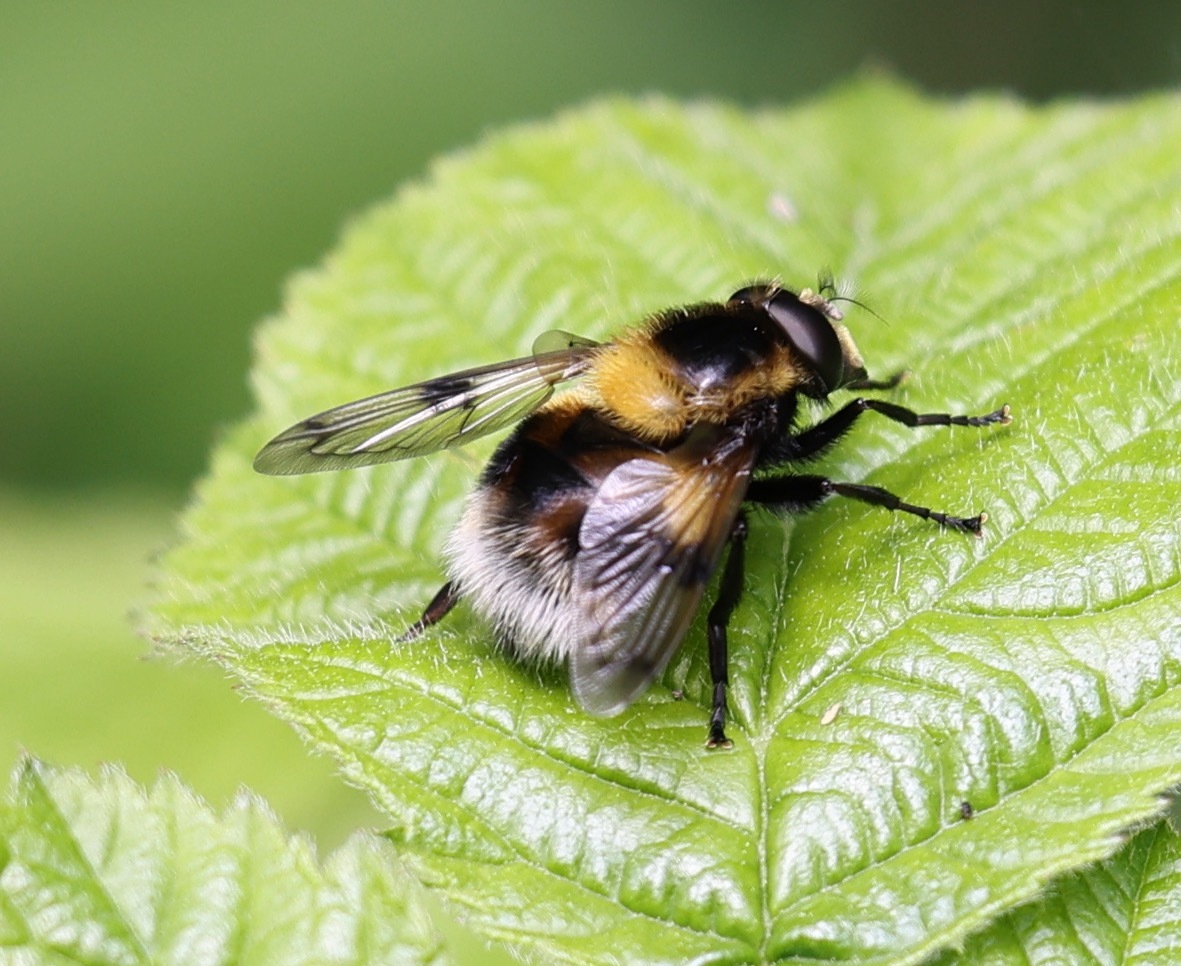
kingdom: Animalia
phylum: Arthropoda
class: Insecta
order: Diptera
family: Syrphidae
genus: Volucella
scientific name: Volucella bombylans
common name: Bumble bee hover fly
